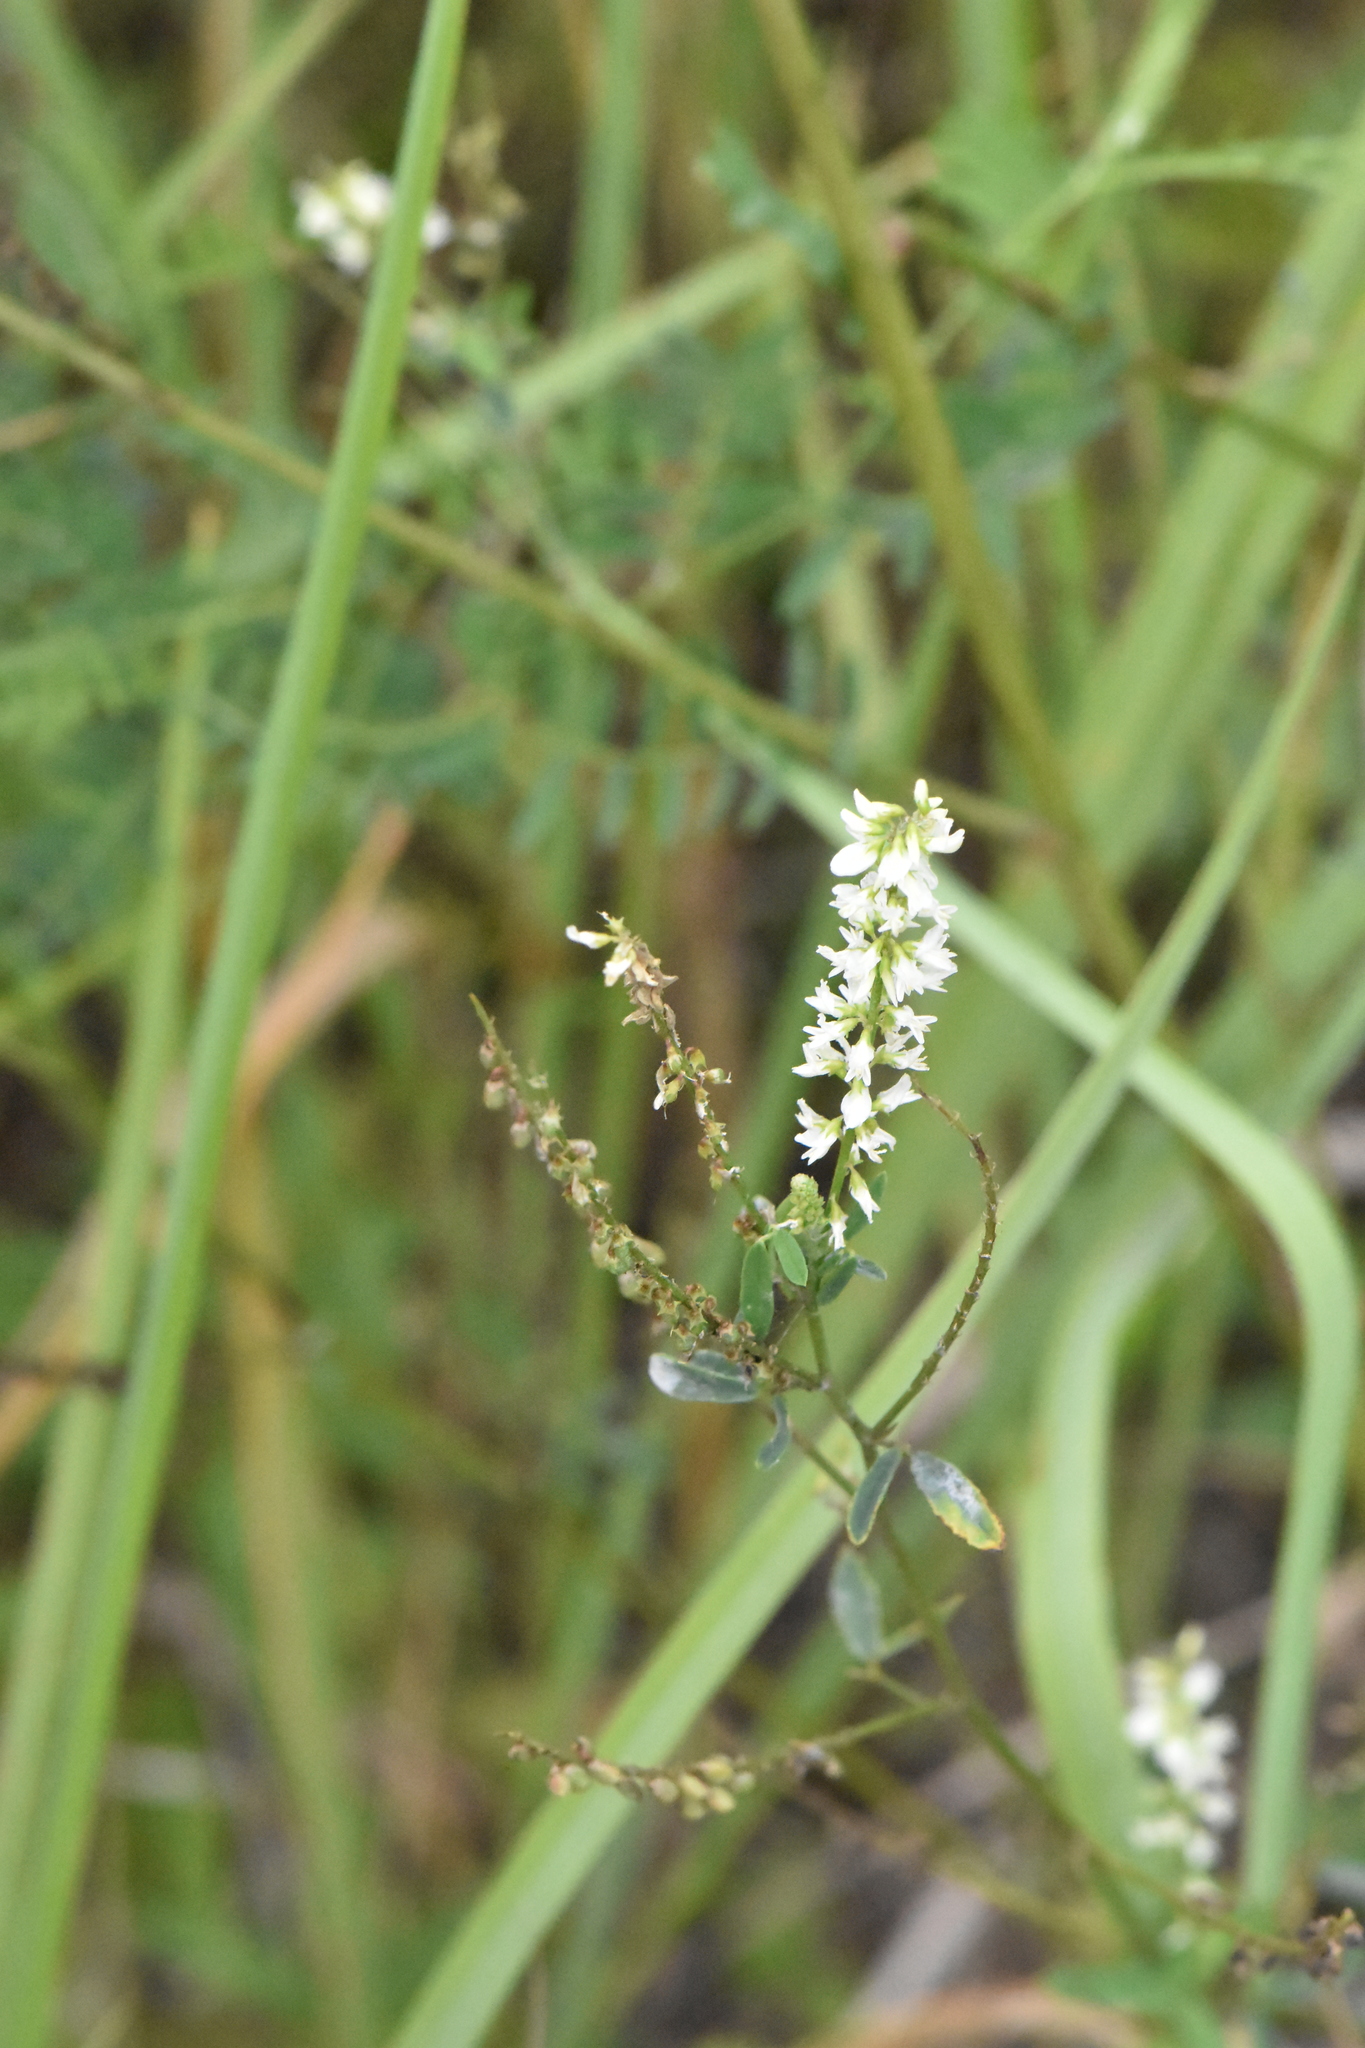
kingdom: Plantae
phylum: Tracheophyta
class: Magnoliopsida
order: Fabales
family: Fabaceae
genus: Melilotus
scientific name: Melilotus albus
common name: White melilot
